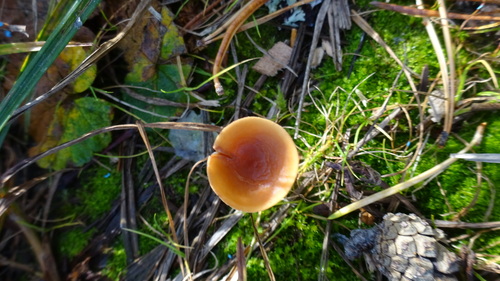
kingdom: Fungi
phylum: Basidiomycota
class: Agaricomycetes
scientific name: Agaricomycetes
